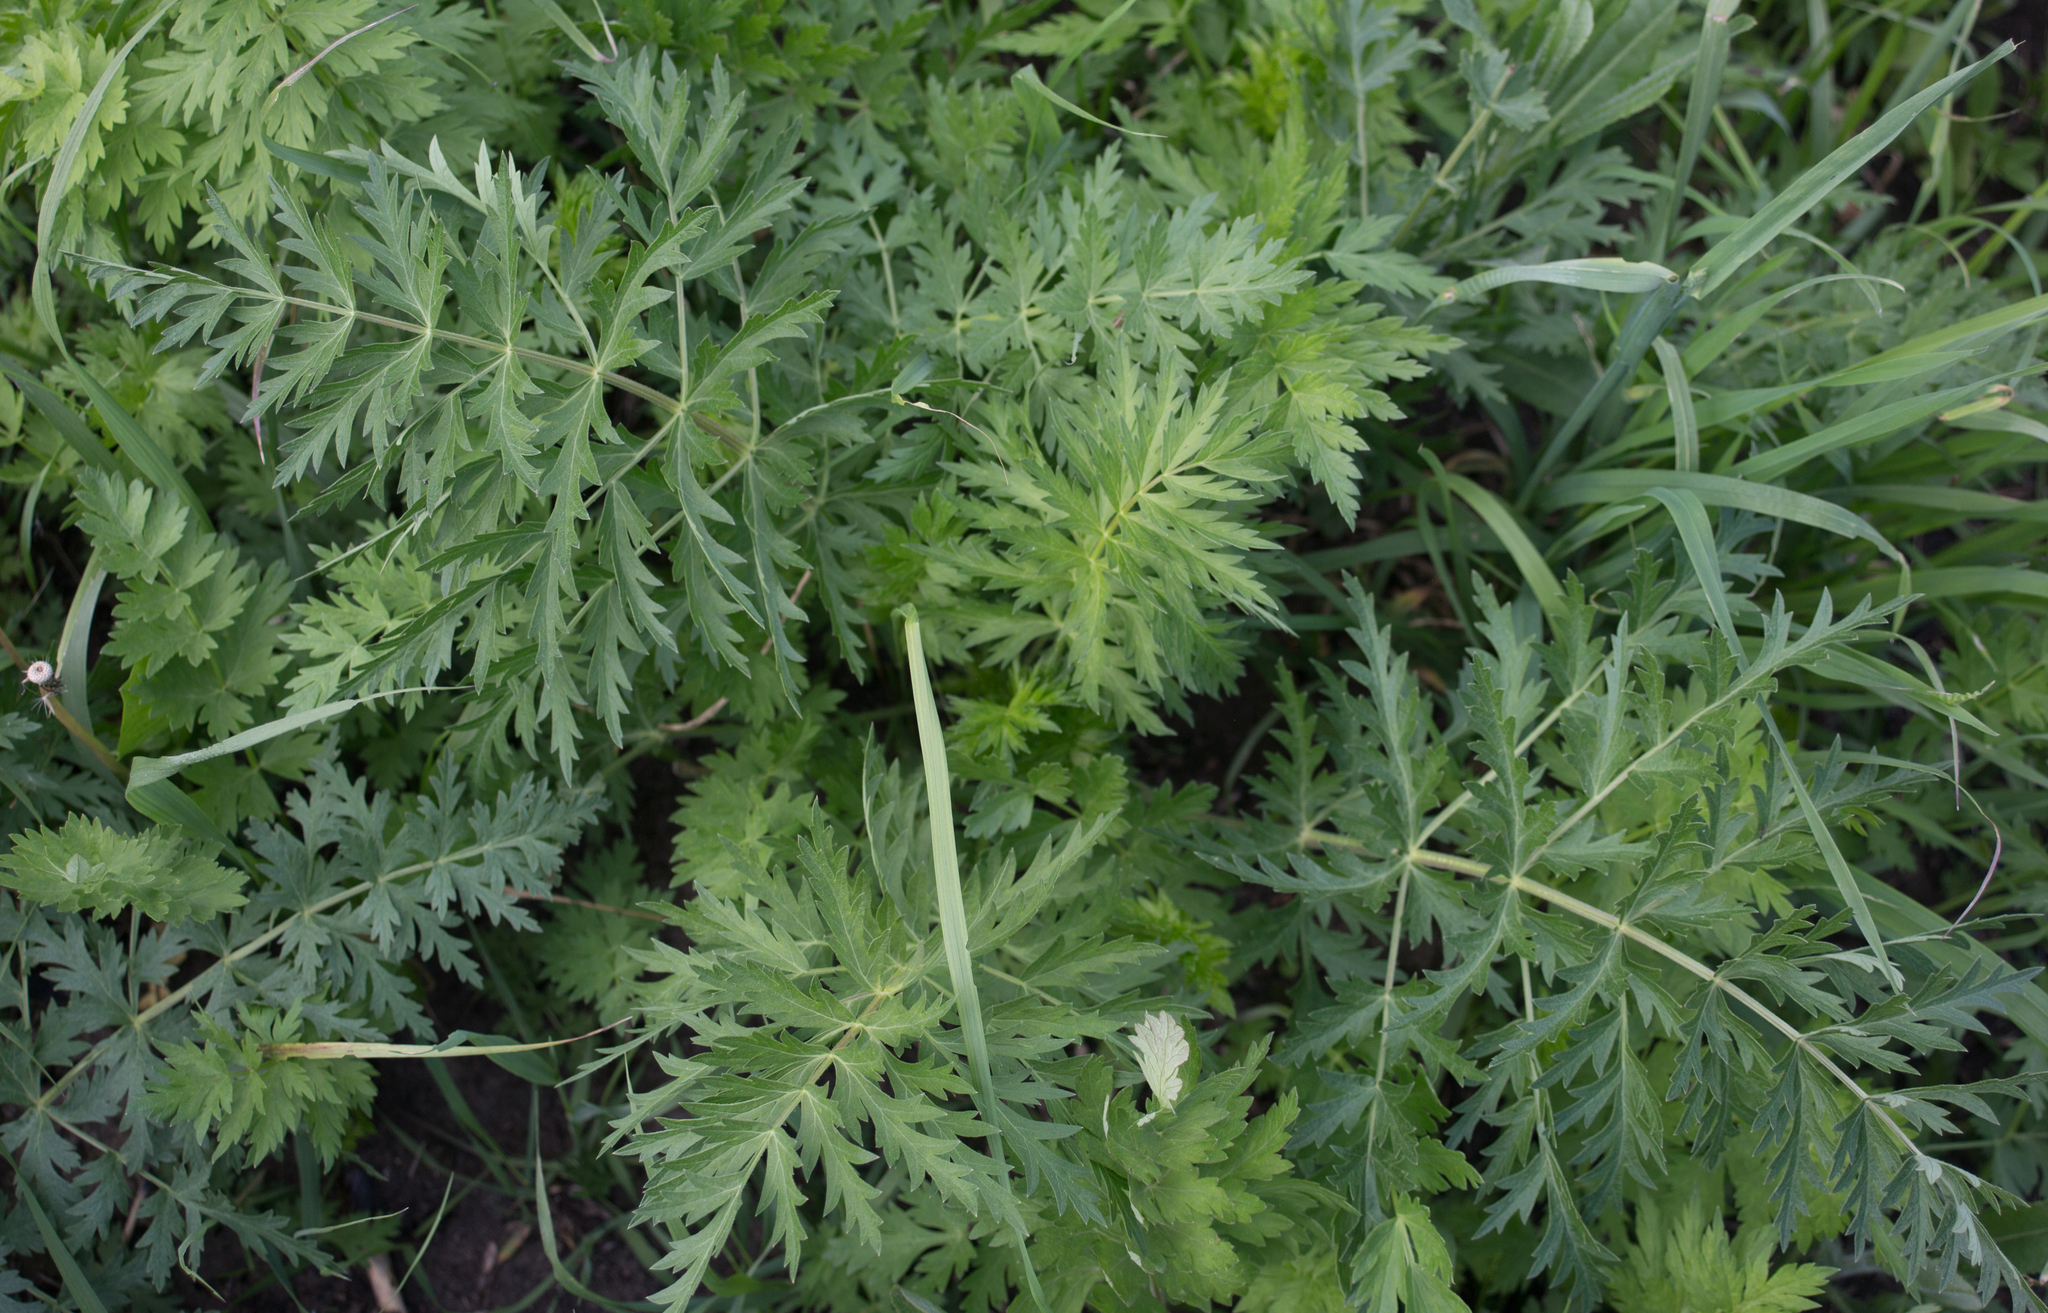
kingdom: Plantae
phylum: Tracheophyta
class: Magnoliopsida
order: Apiales
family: Apiaceae
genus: Seseli
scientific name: Seseli libanotis
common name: Mooncarrot
